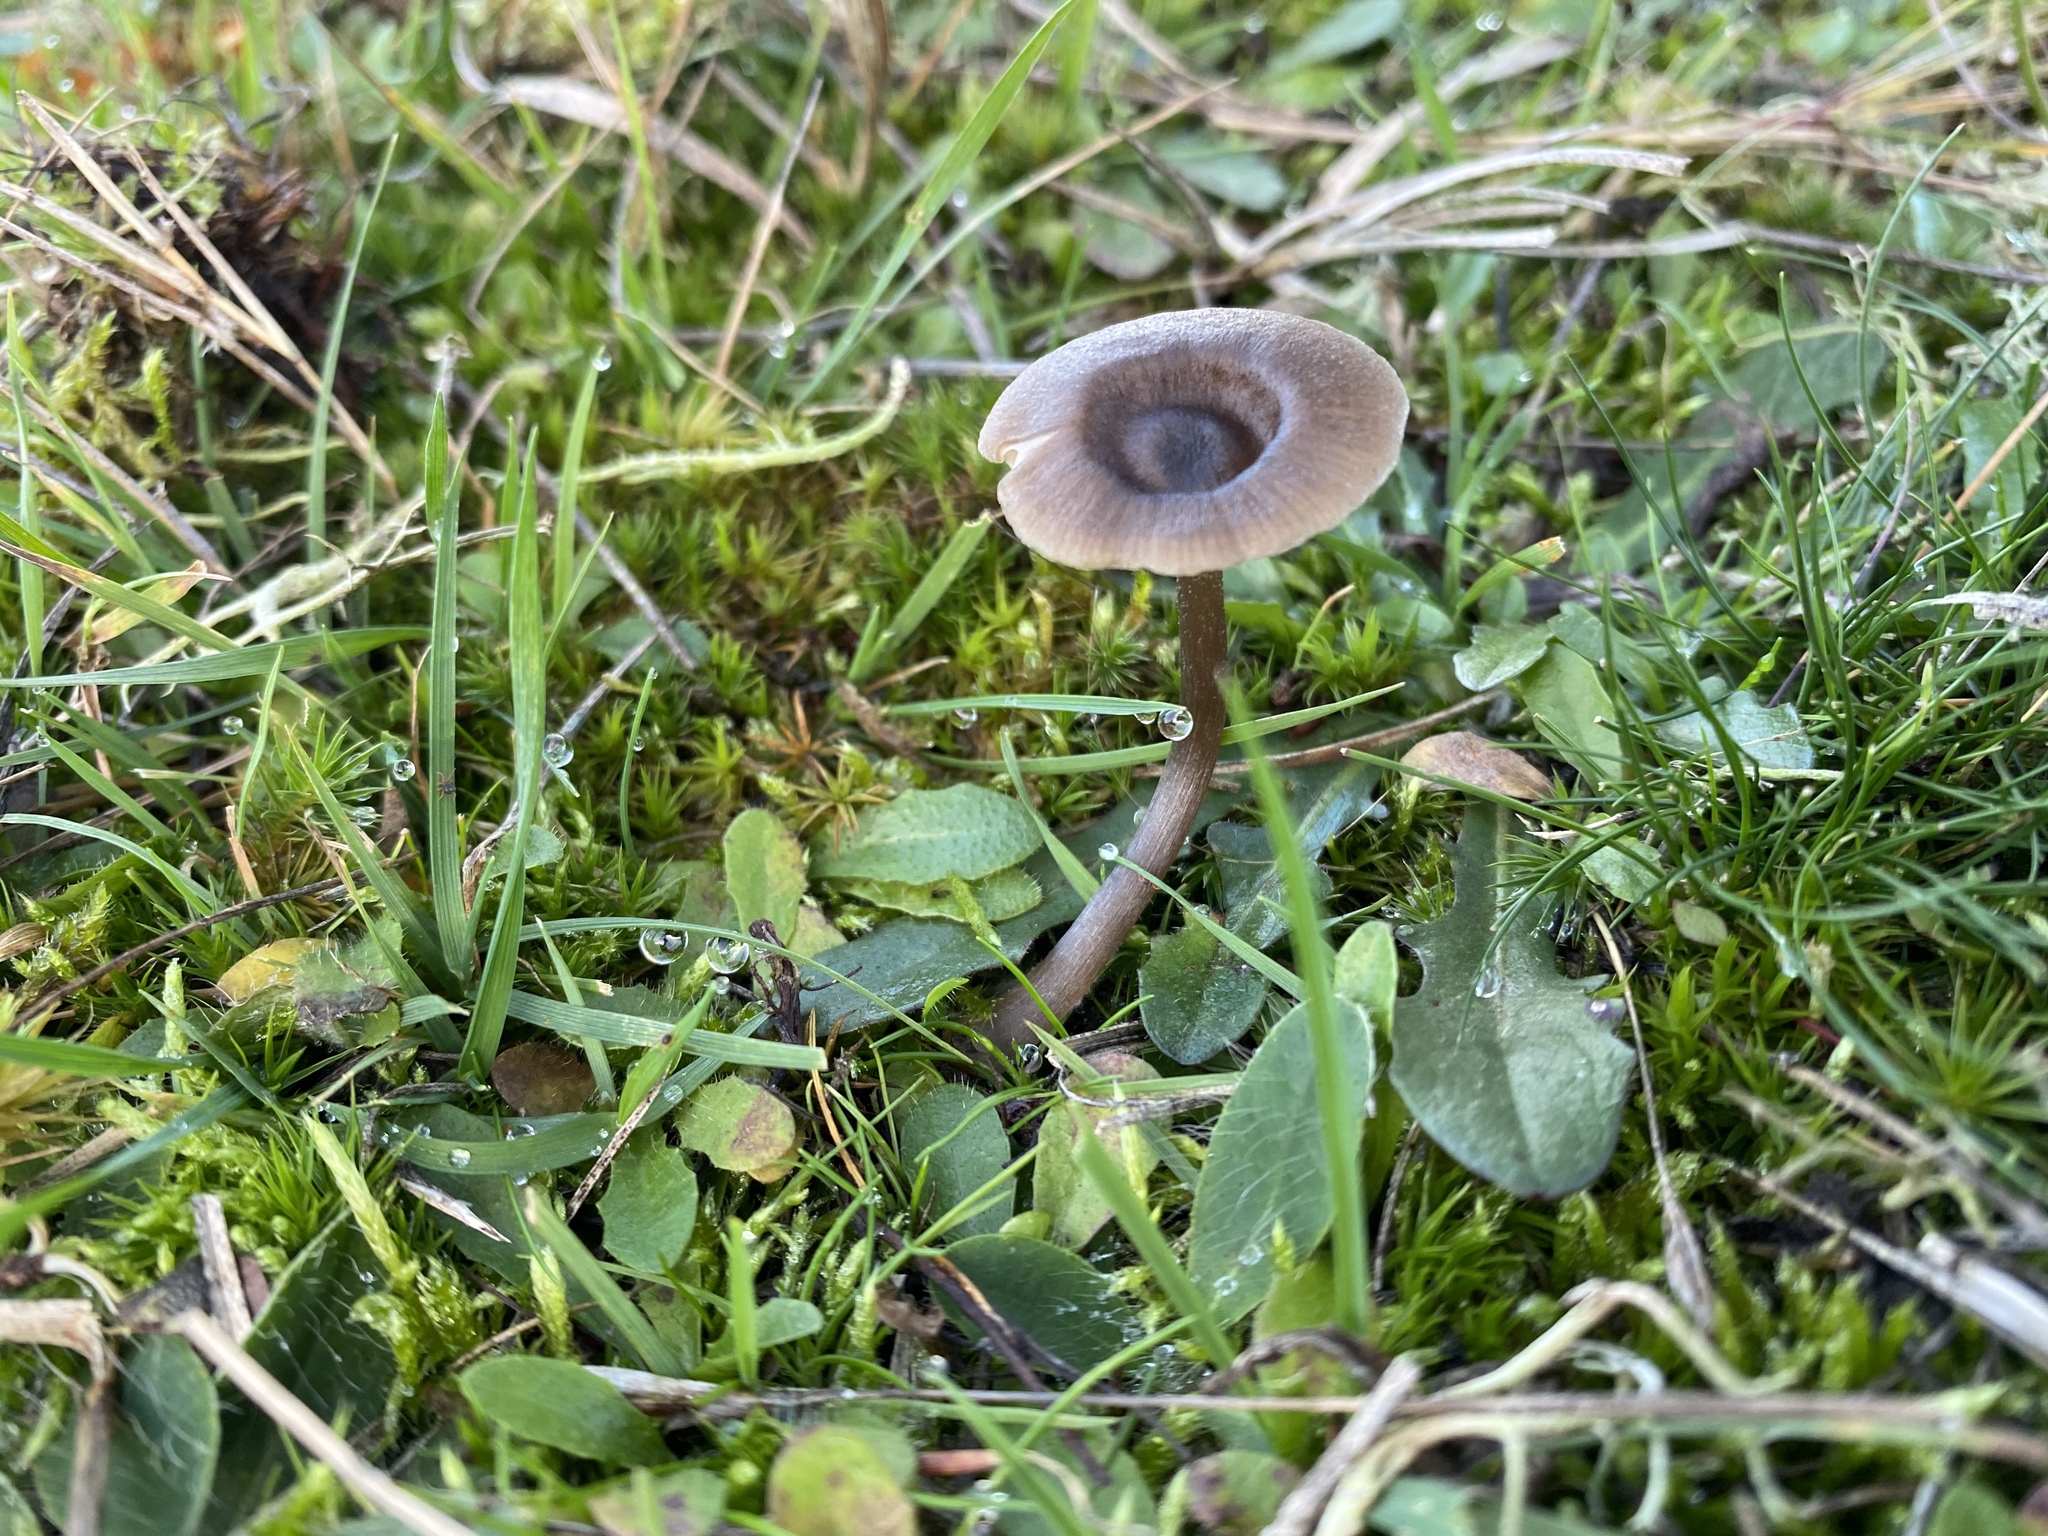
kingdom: Fungi
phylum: Basidiomycota
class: Agaricomycetes
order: Agaricales
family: Pseudoclitocybaceae
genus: Pseudoclitocybe
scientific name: Pseudoclitocybe cyathiformis
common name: Goblet
